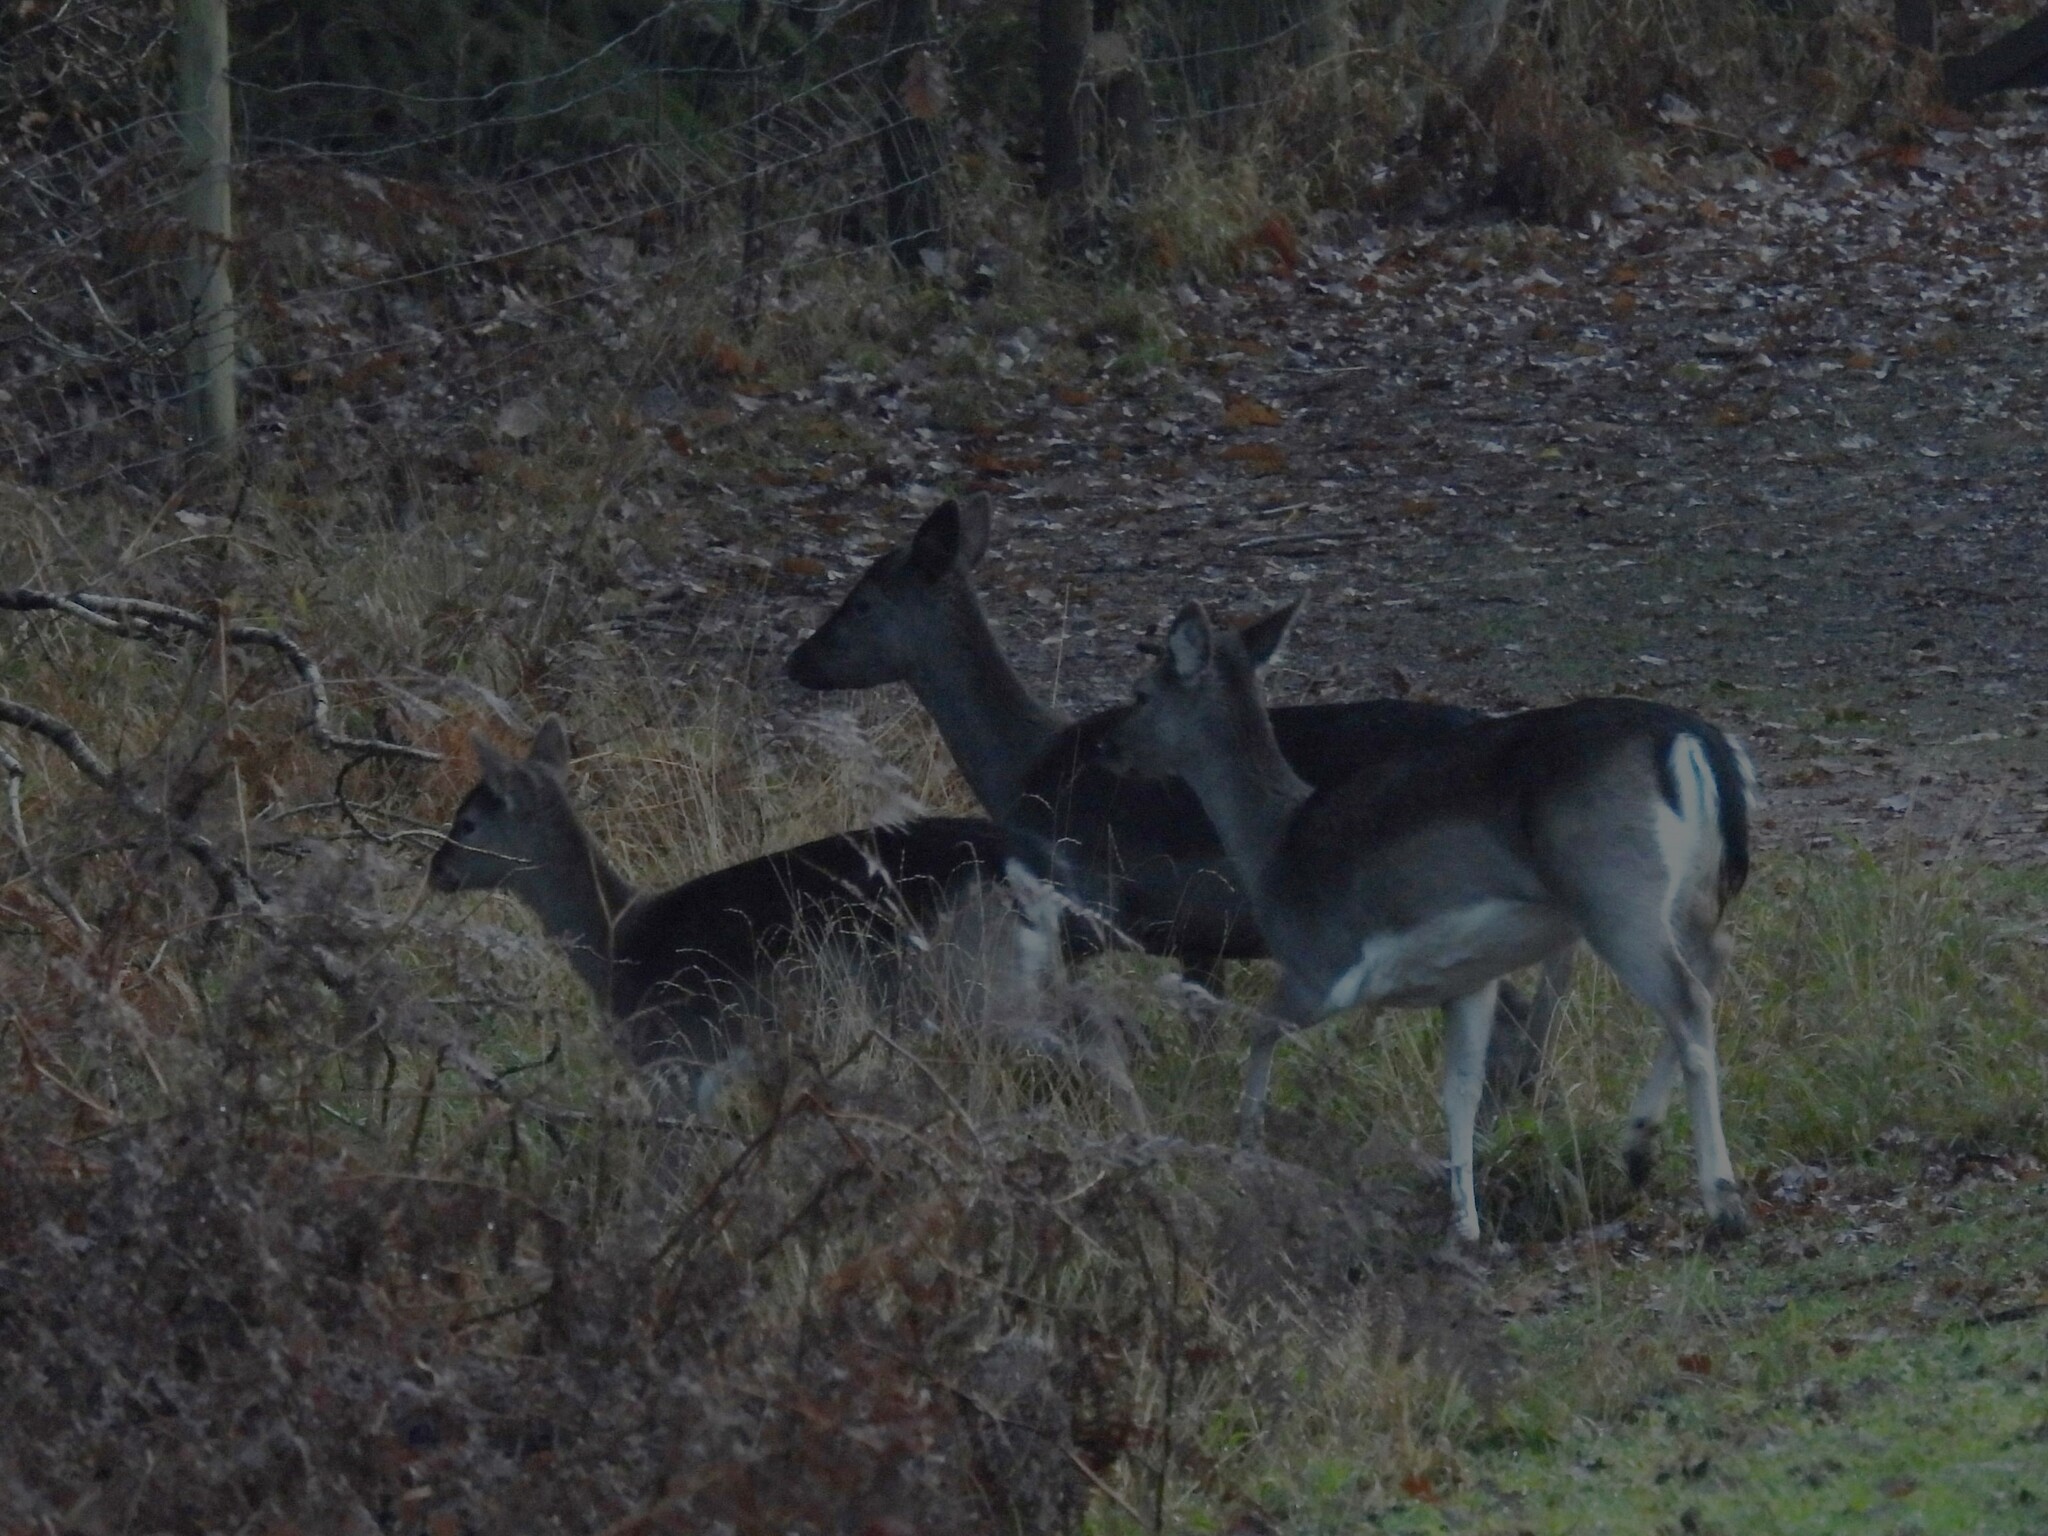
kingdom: Animalia
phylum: Chordata
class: Mammalia
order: Artiodactyla
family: Cervidae
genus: Dama
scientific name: Dama dama
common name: Fallow deer
